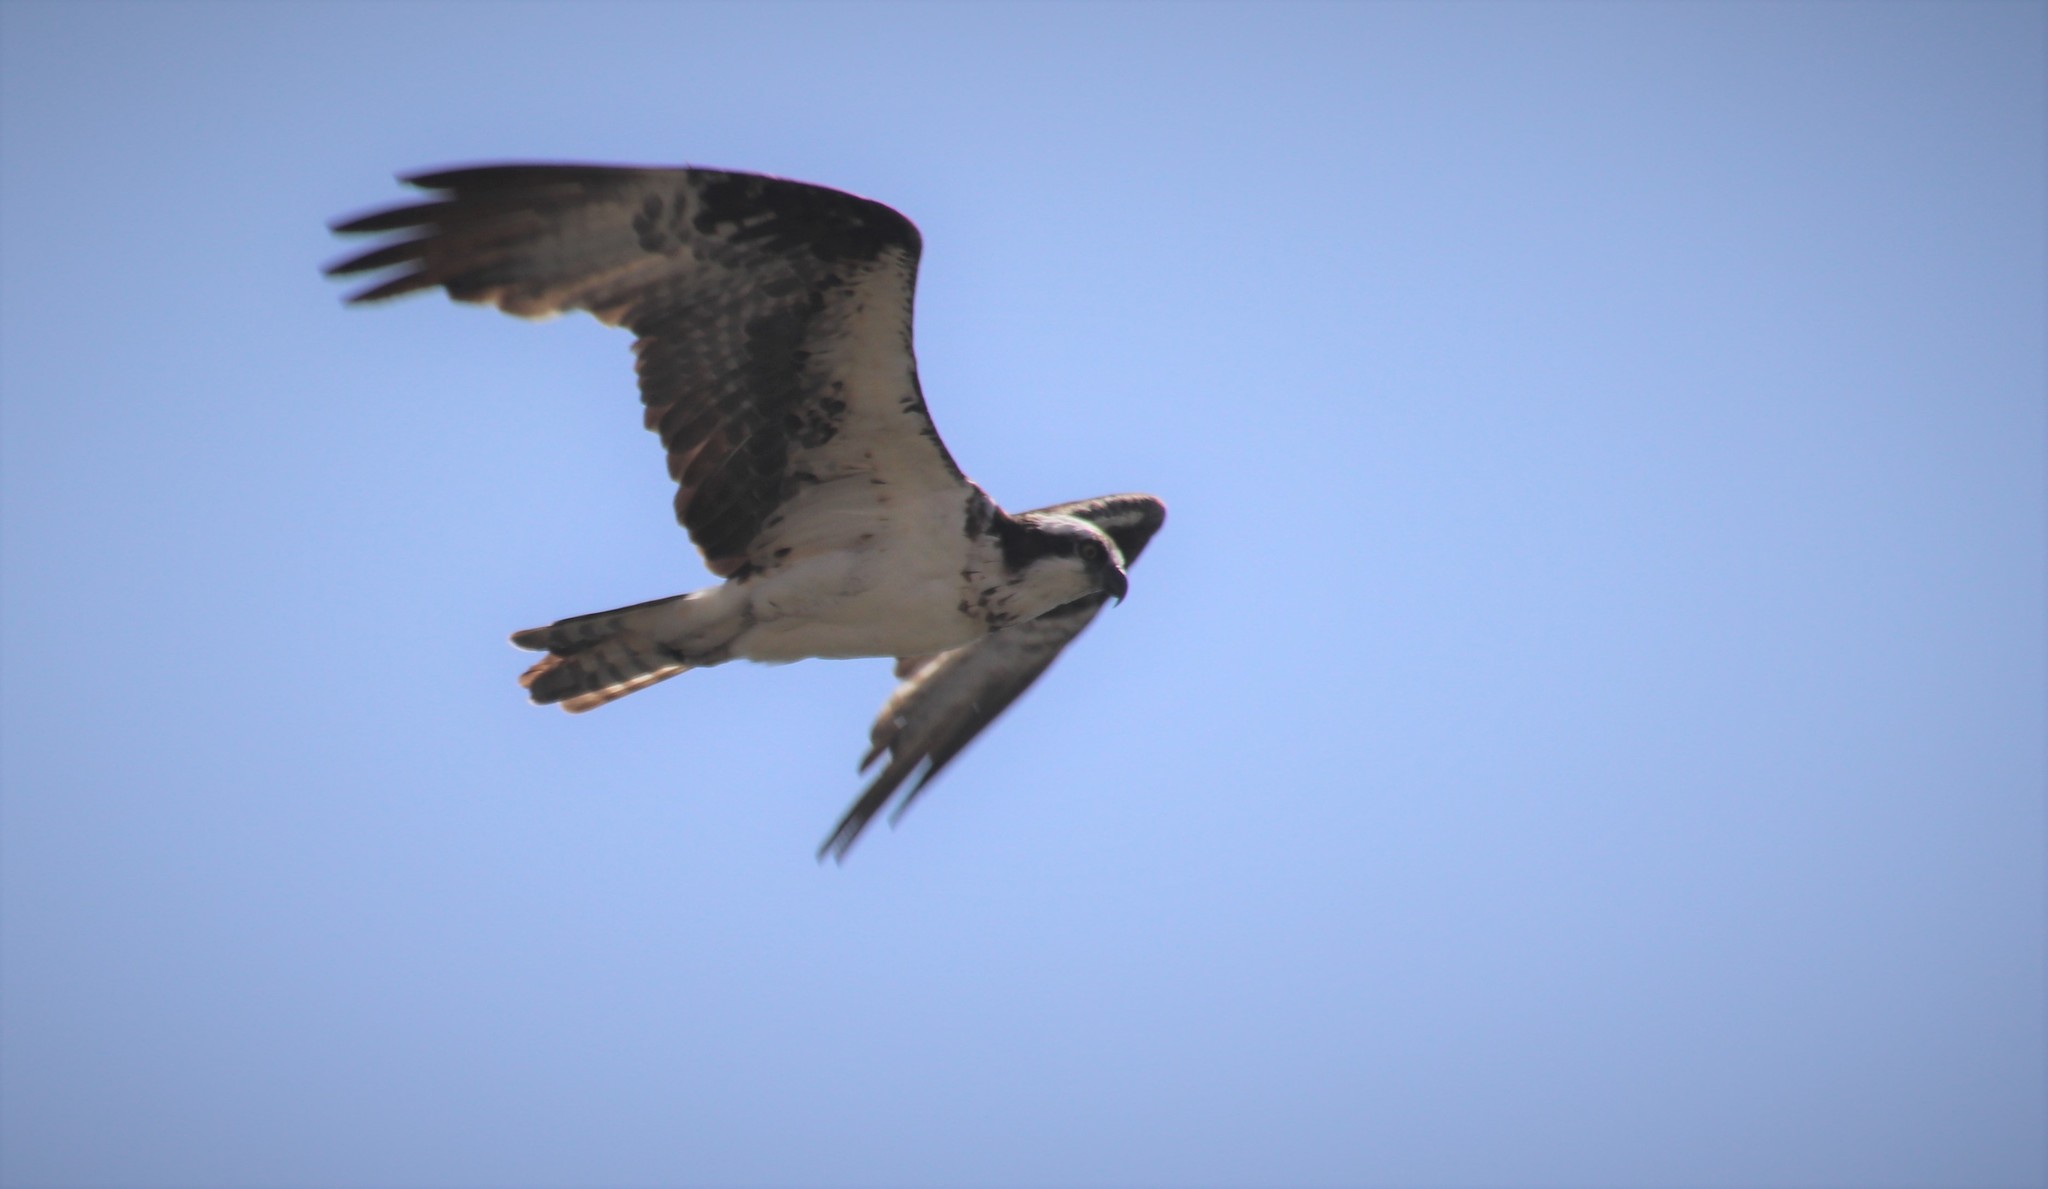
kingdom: Animalia
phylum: Chordata
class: Aves
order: Accipitriformes
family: Pandionidae
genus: Pandion
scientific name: Pandion haliaetus
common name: Osprey
